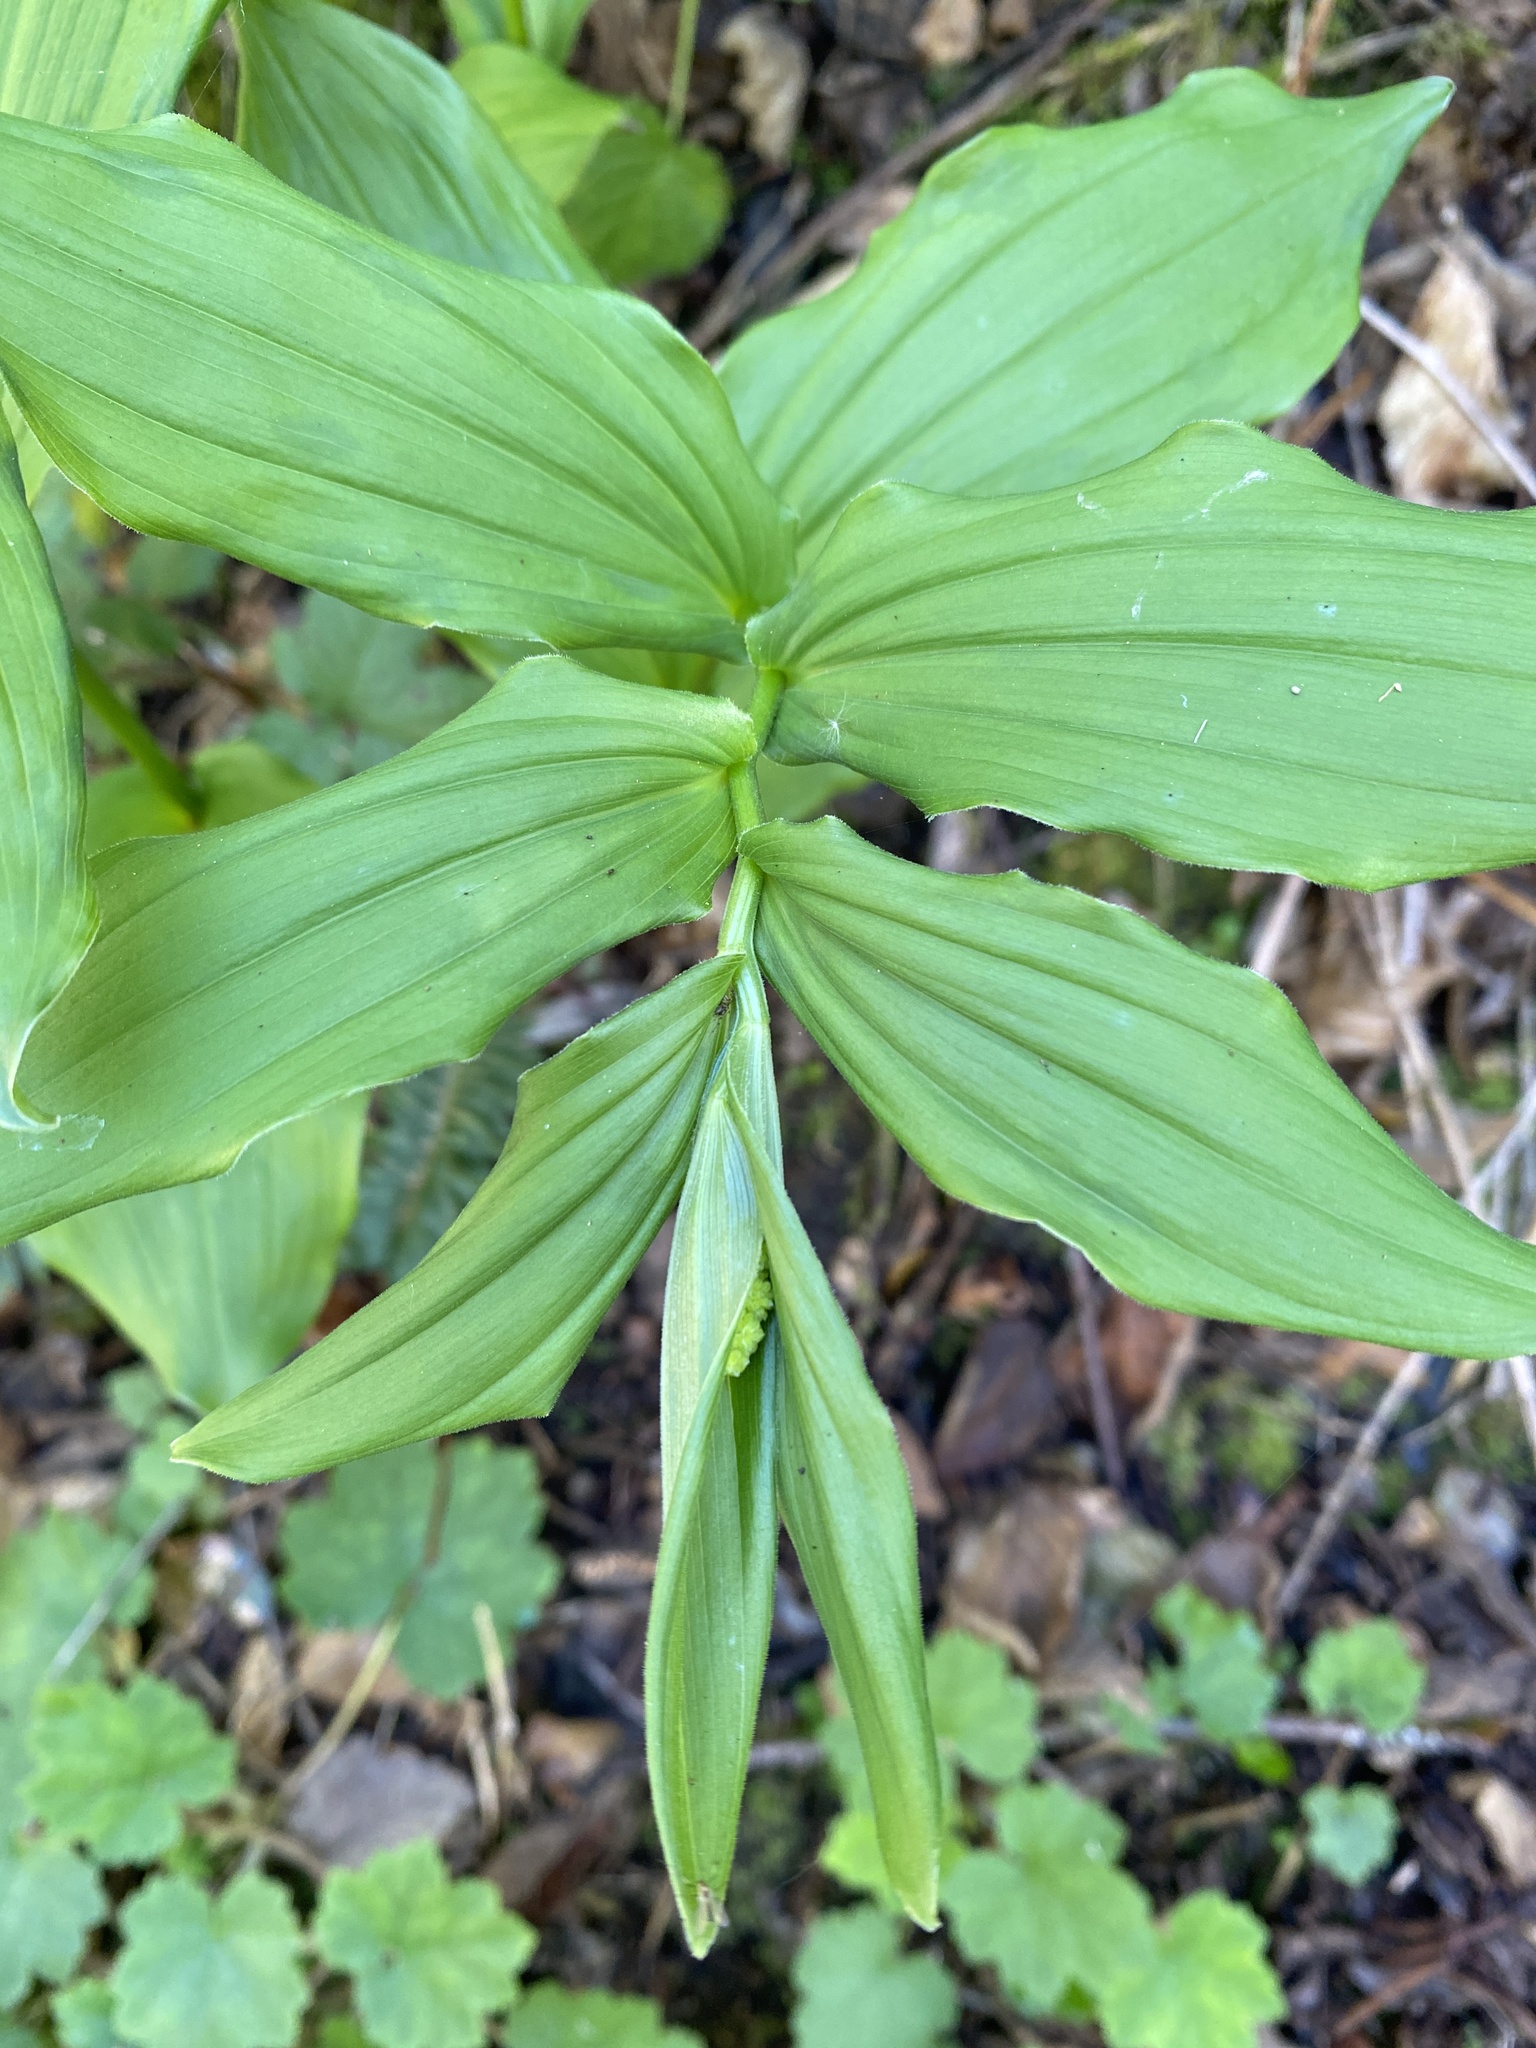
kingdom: Plantae
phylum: Tracheophyta
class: Liliopsida
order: Asparagales
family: Asparagaceae
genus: Maianthemum
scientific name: Maianthemum racemosum
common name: False spikenard
